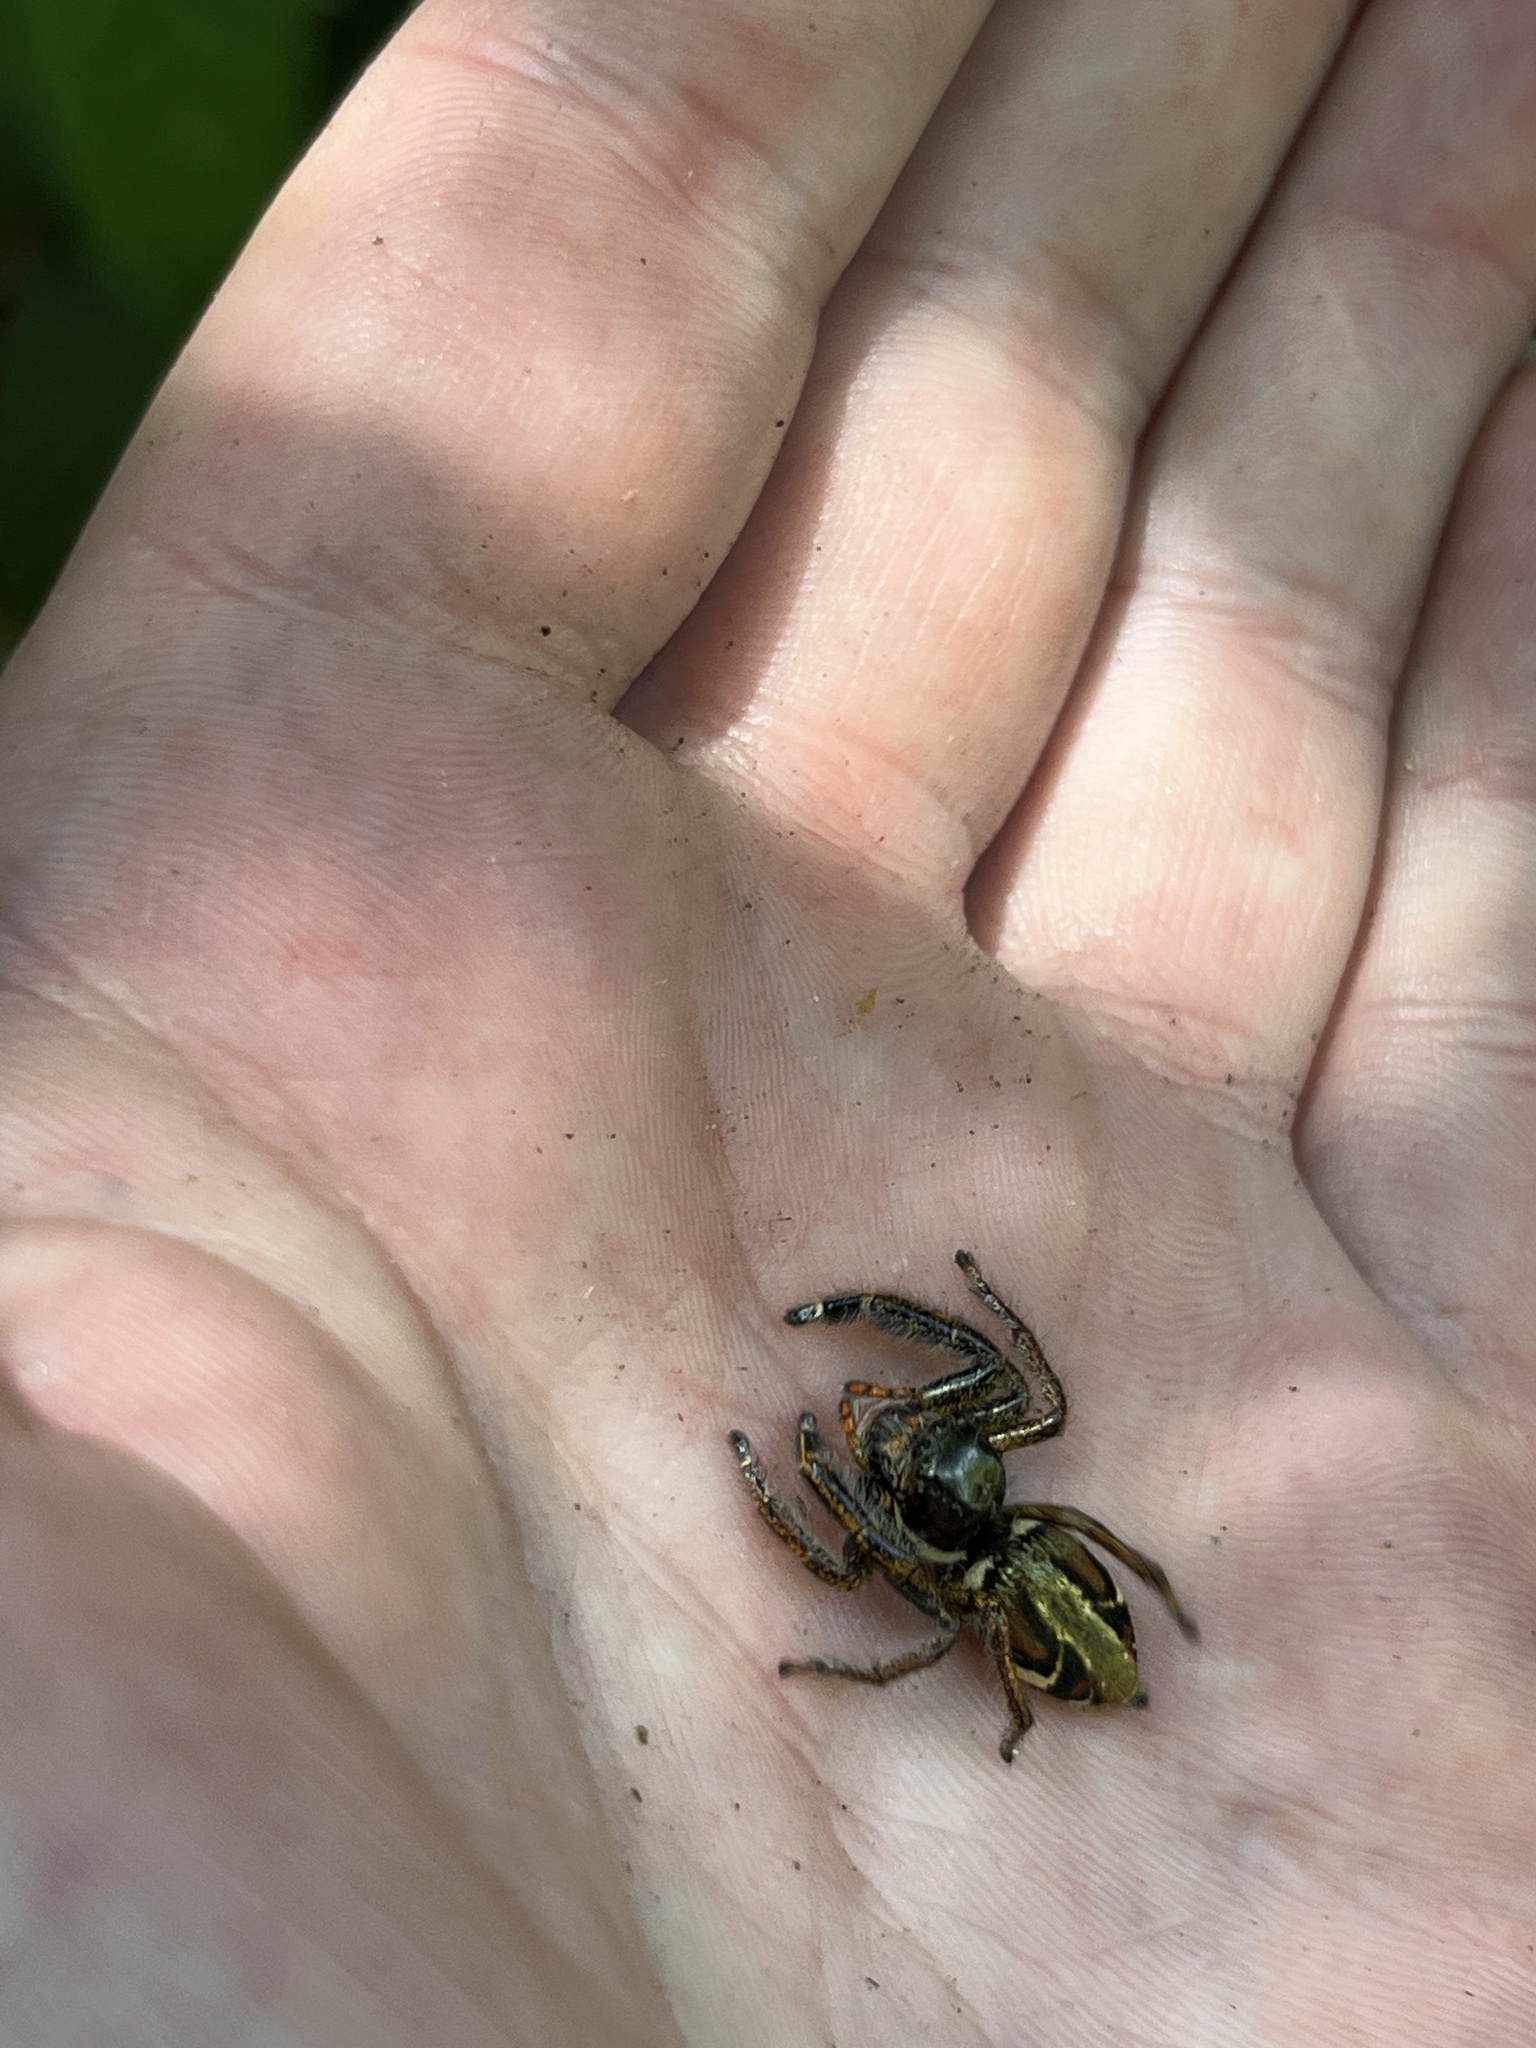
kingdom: Animalia
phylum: Arthropoda
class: Arachnida
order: Araneae
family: Salticidae
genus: Hyllus
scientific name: Hyllus keratodes
